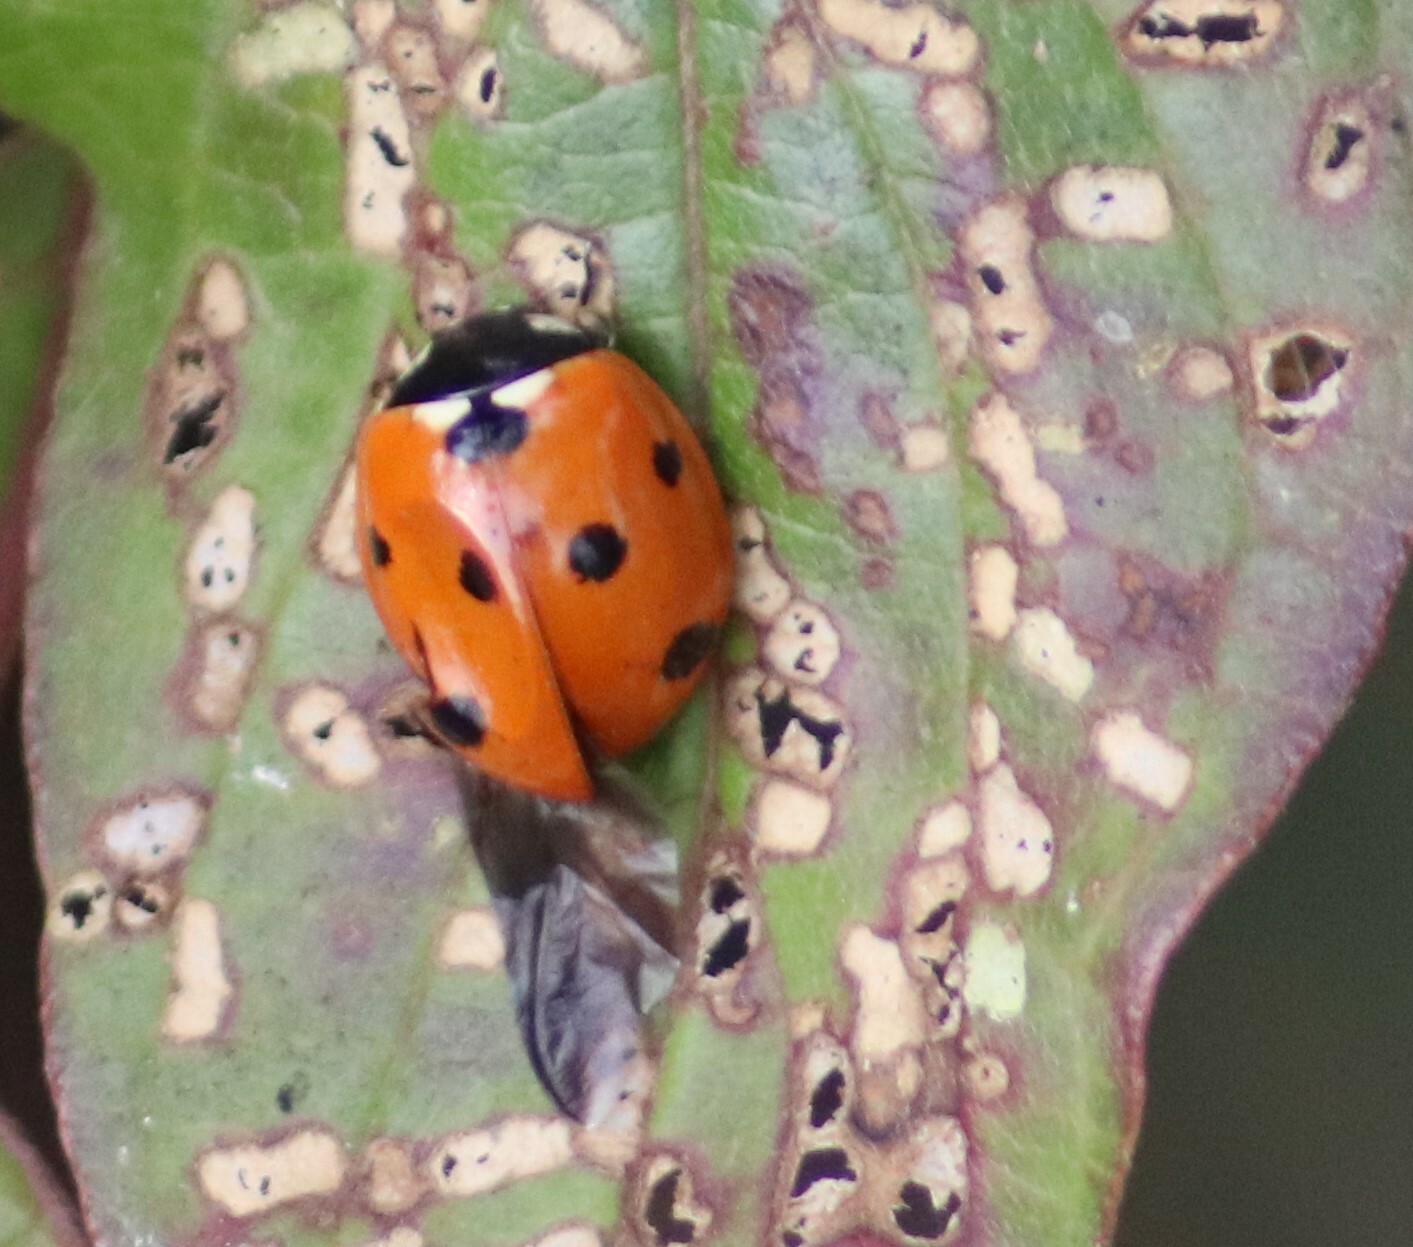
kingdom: Animalia
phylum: Arthropoda
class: Insecta
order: Coleoptera
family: Coccinellidae
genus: Coccinella
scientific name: Coccinella septempunctata
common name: Sevenspotted lady beetle
